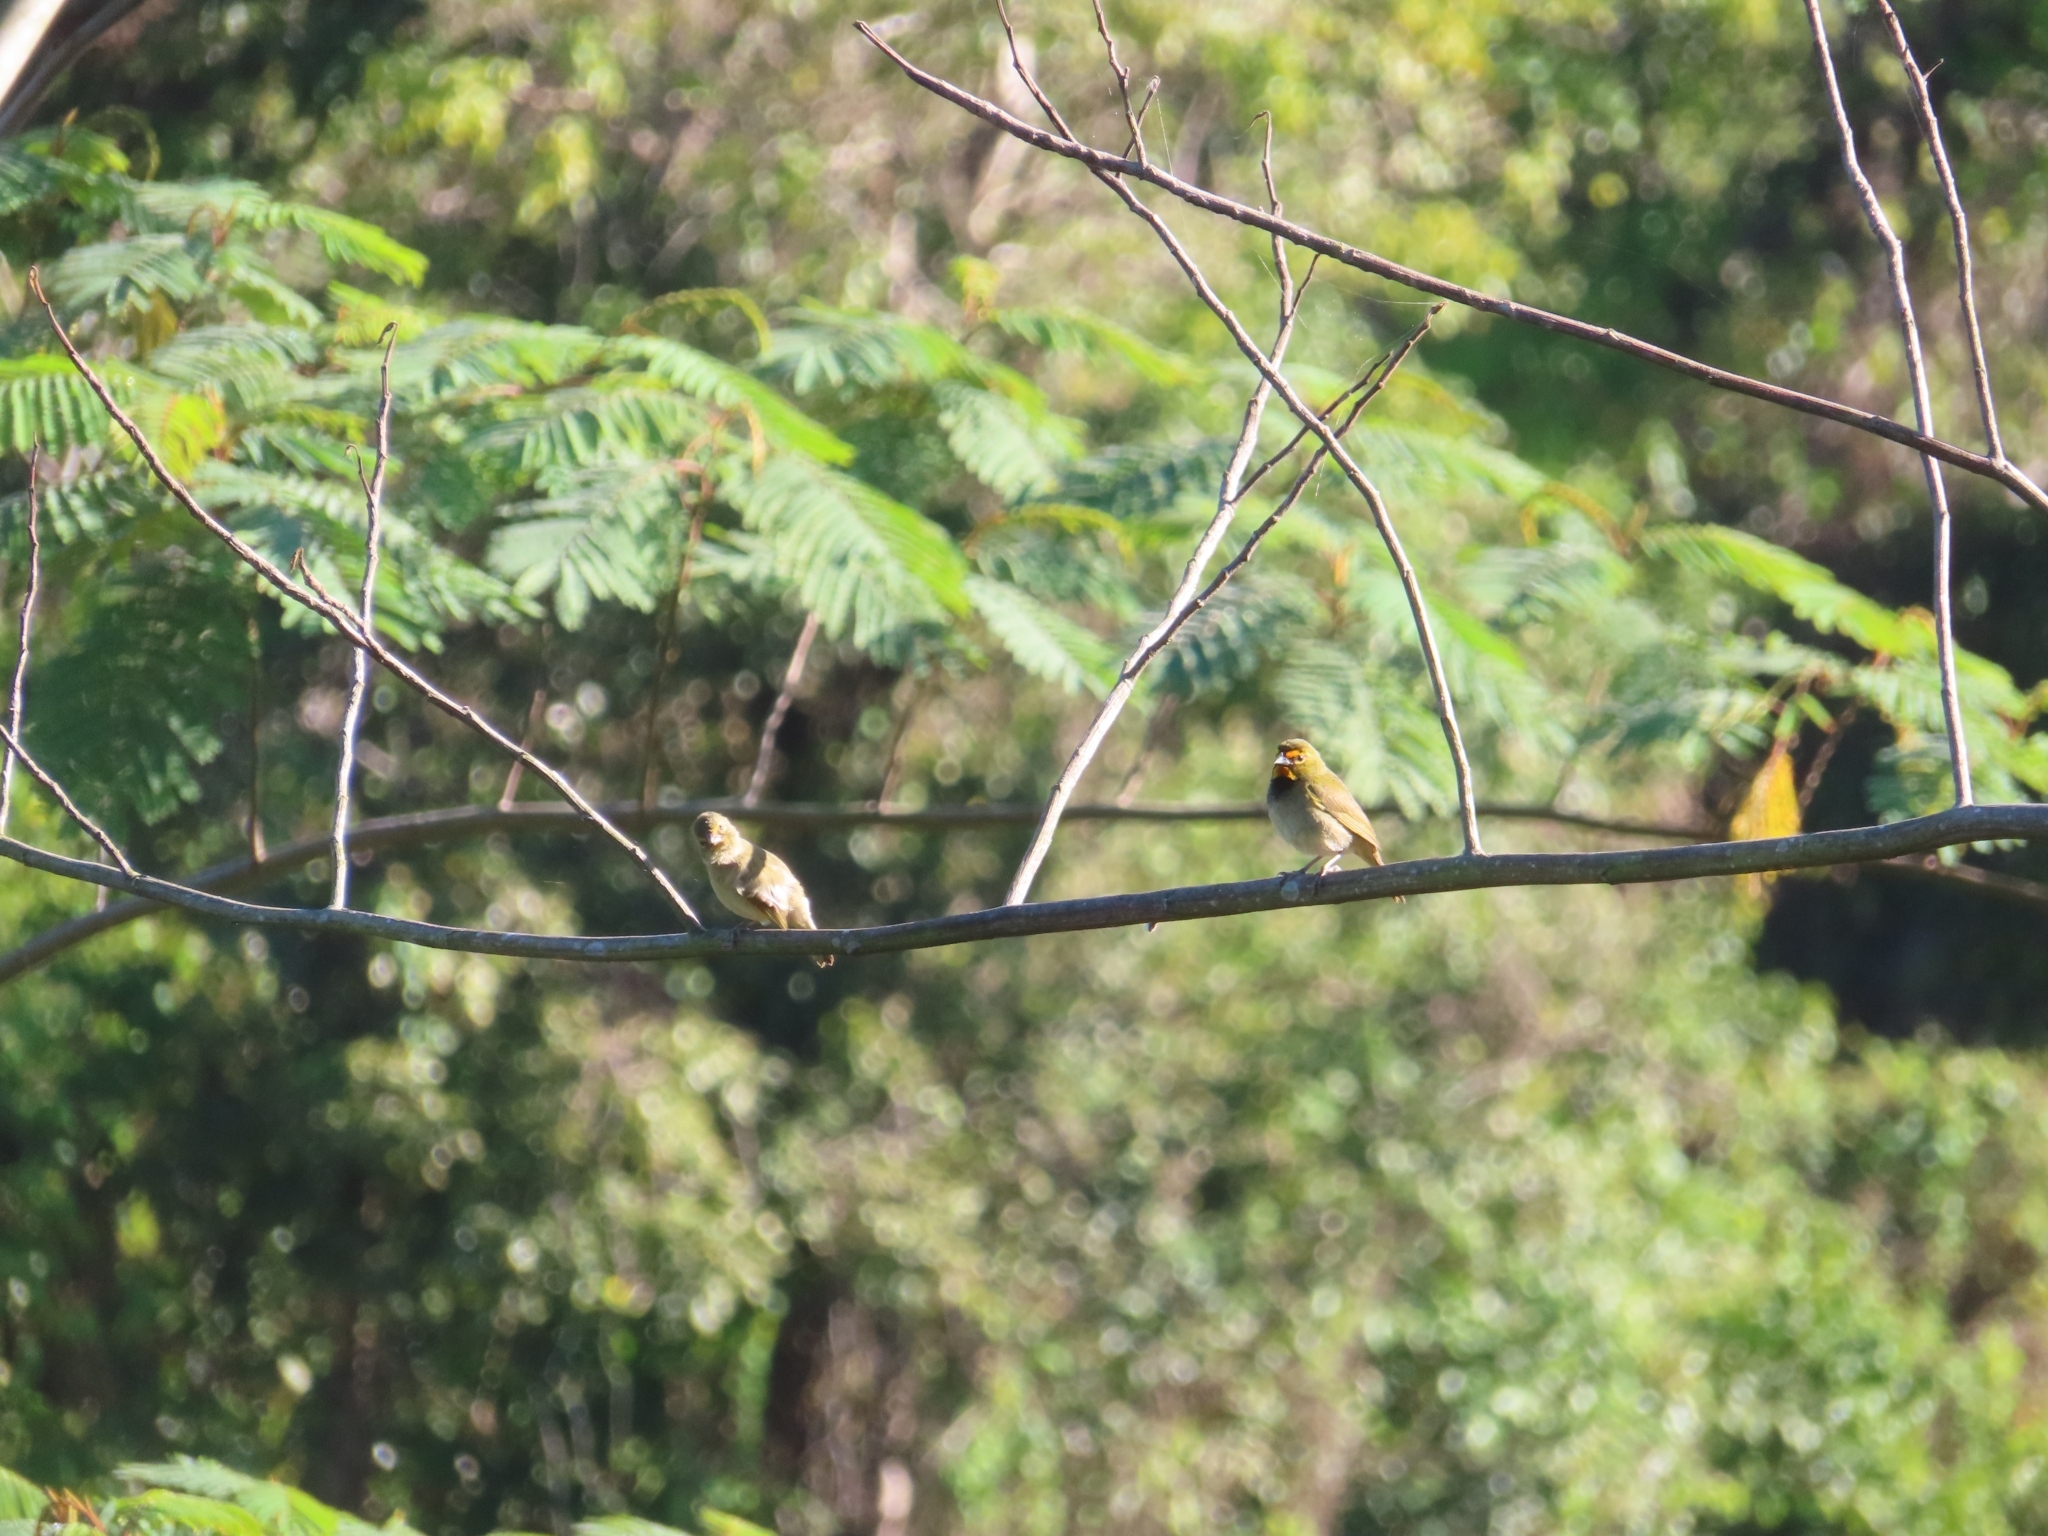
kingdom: Animalia
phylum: Chordata
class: Aves
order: Passeriformes
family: Thraupidae
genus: Tiaris
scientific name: Tiaris olivaceus
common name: Yellow-faced grassquit
